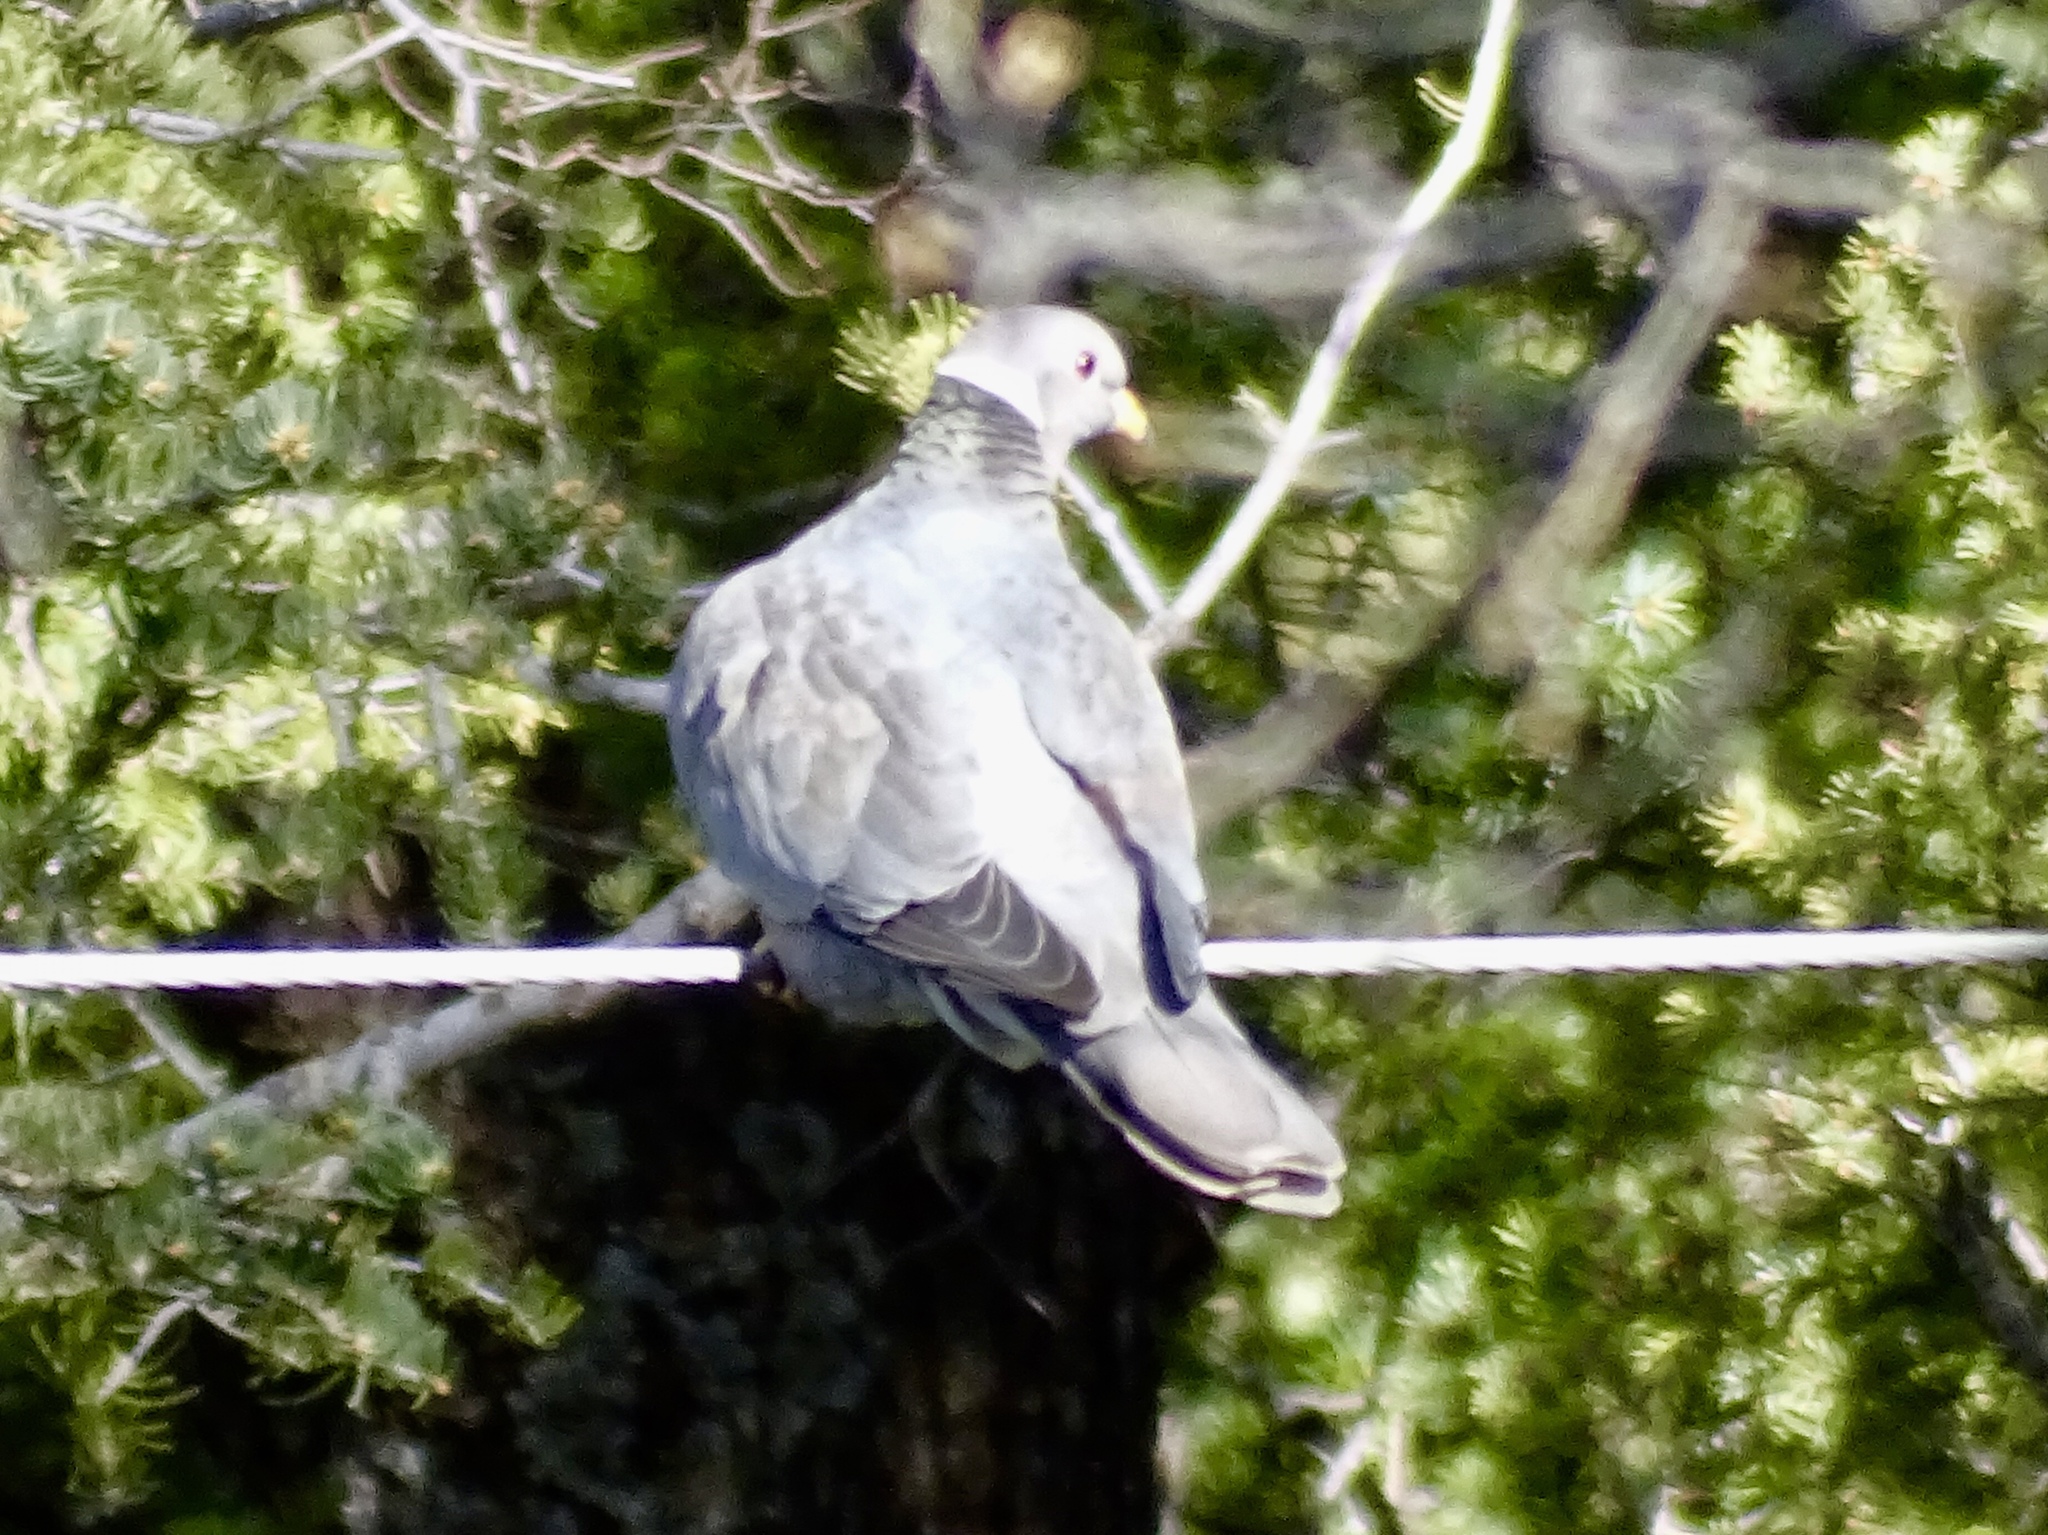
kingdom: Animalia
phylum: Chordata
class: Aves
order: Columbiformes
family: Columbidae
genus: Patagioenas
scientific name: Patagioenas fasciata
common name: Band-tailed pigeon
